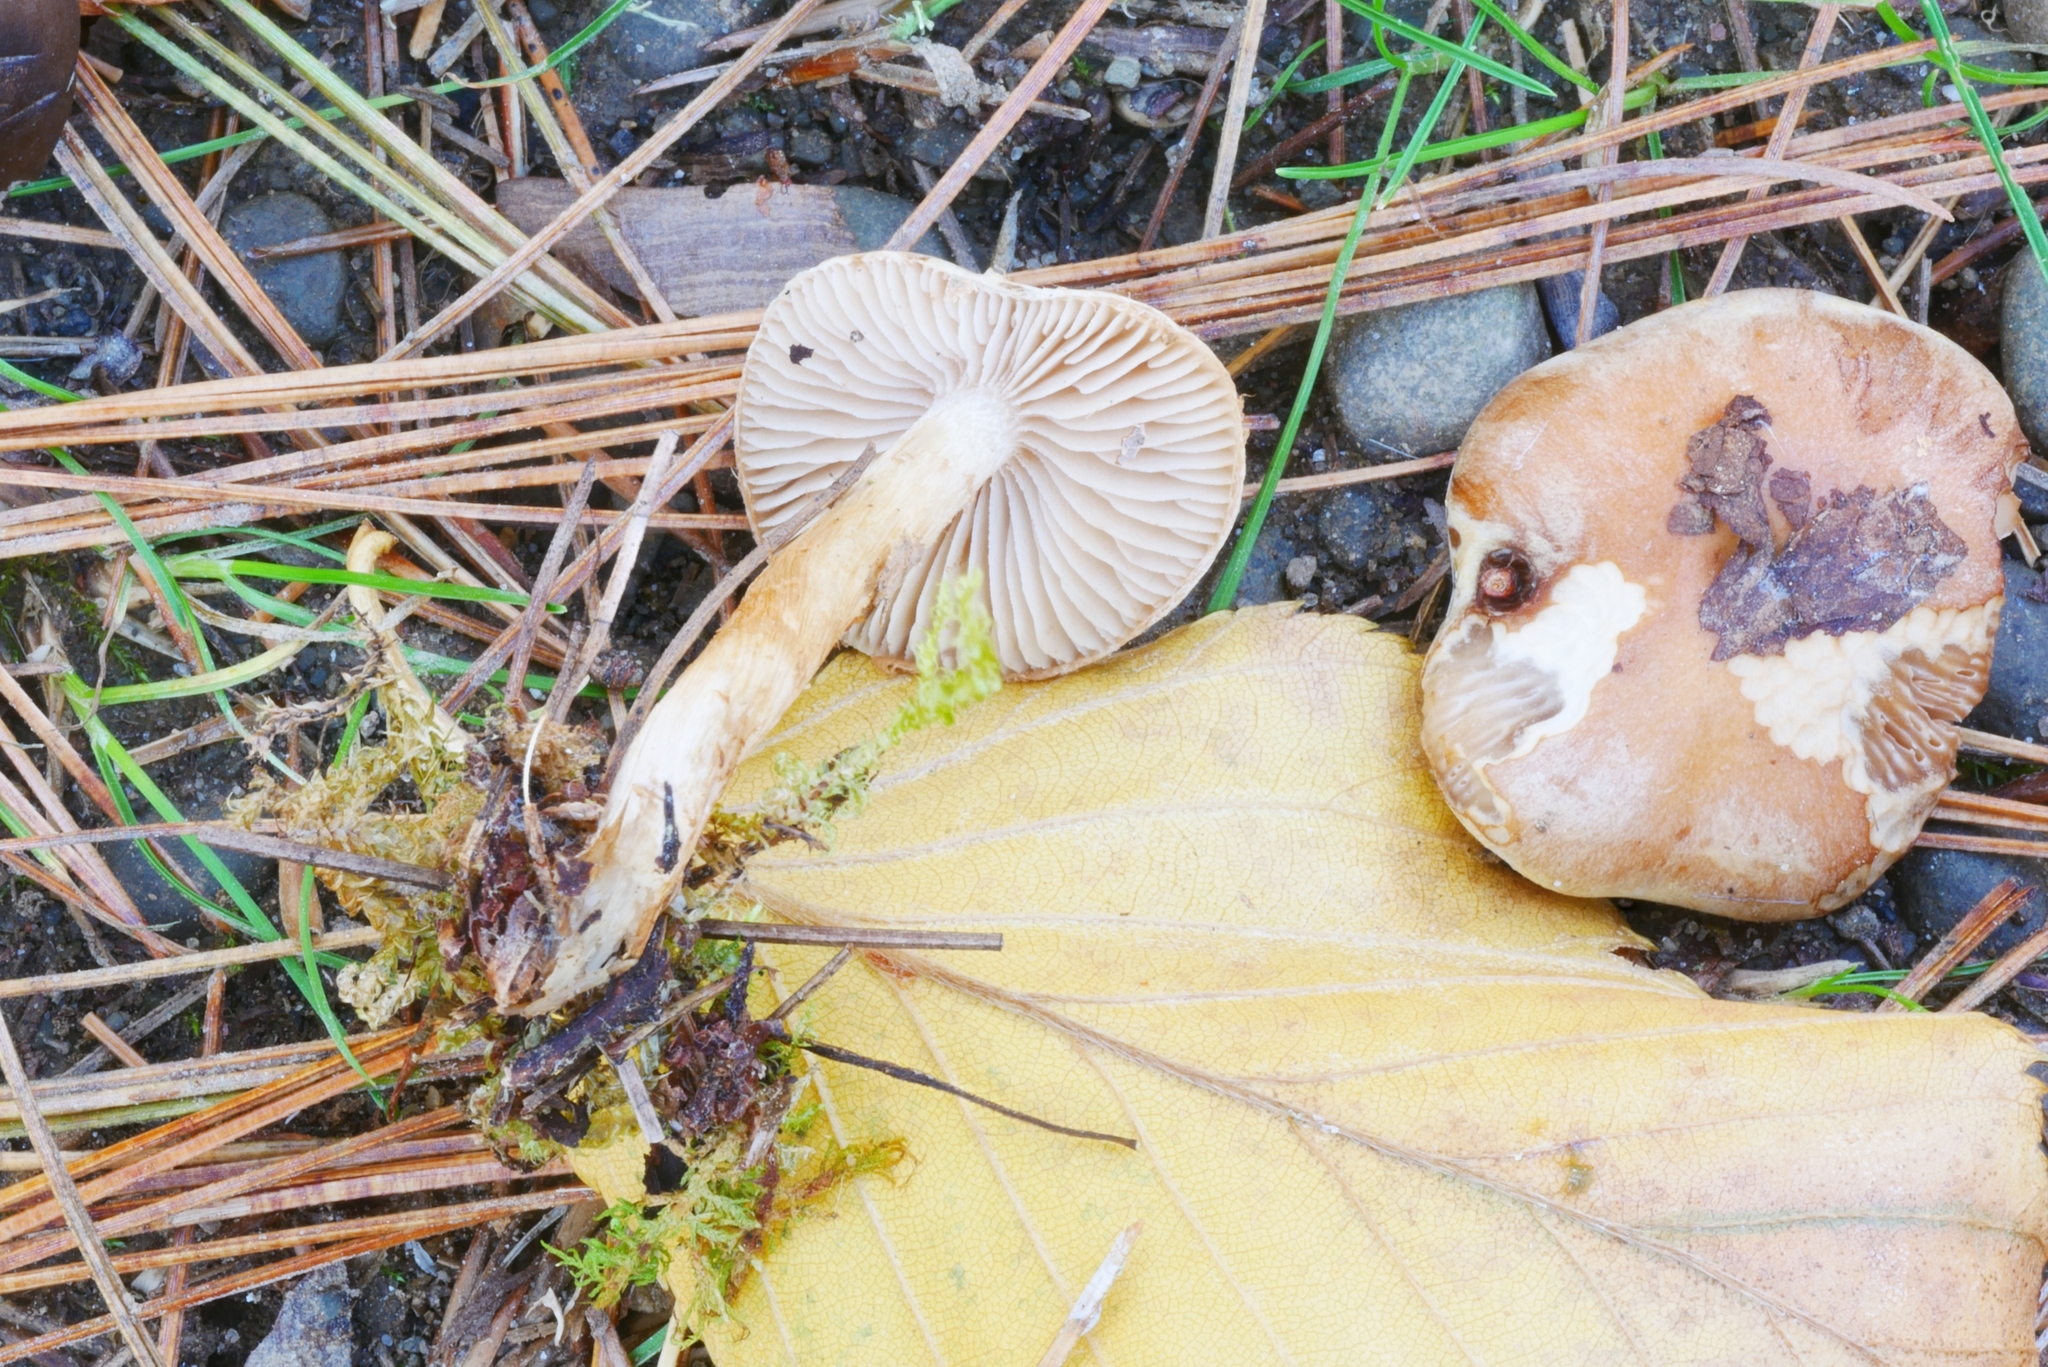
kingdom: Fungi
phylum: Basidiomycota
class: Agaricomycetes
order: Agaricales
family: Hymenogastraceae
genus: Hebeloma
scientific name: Hebeloma excedens
